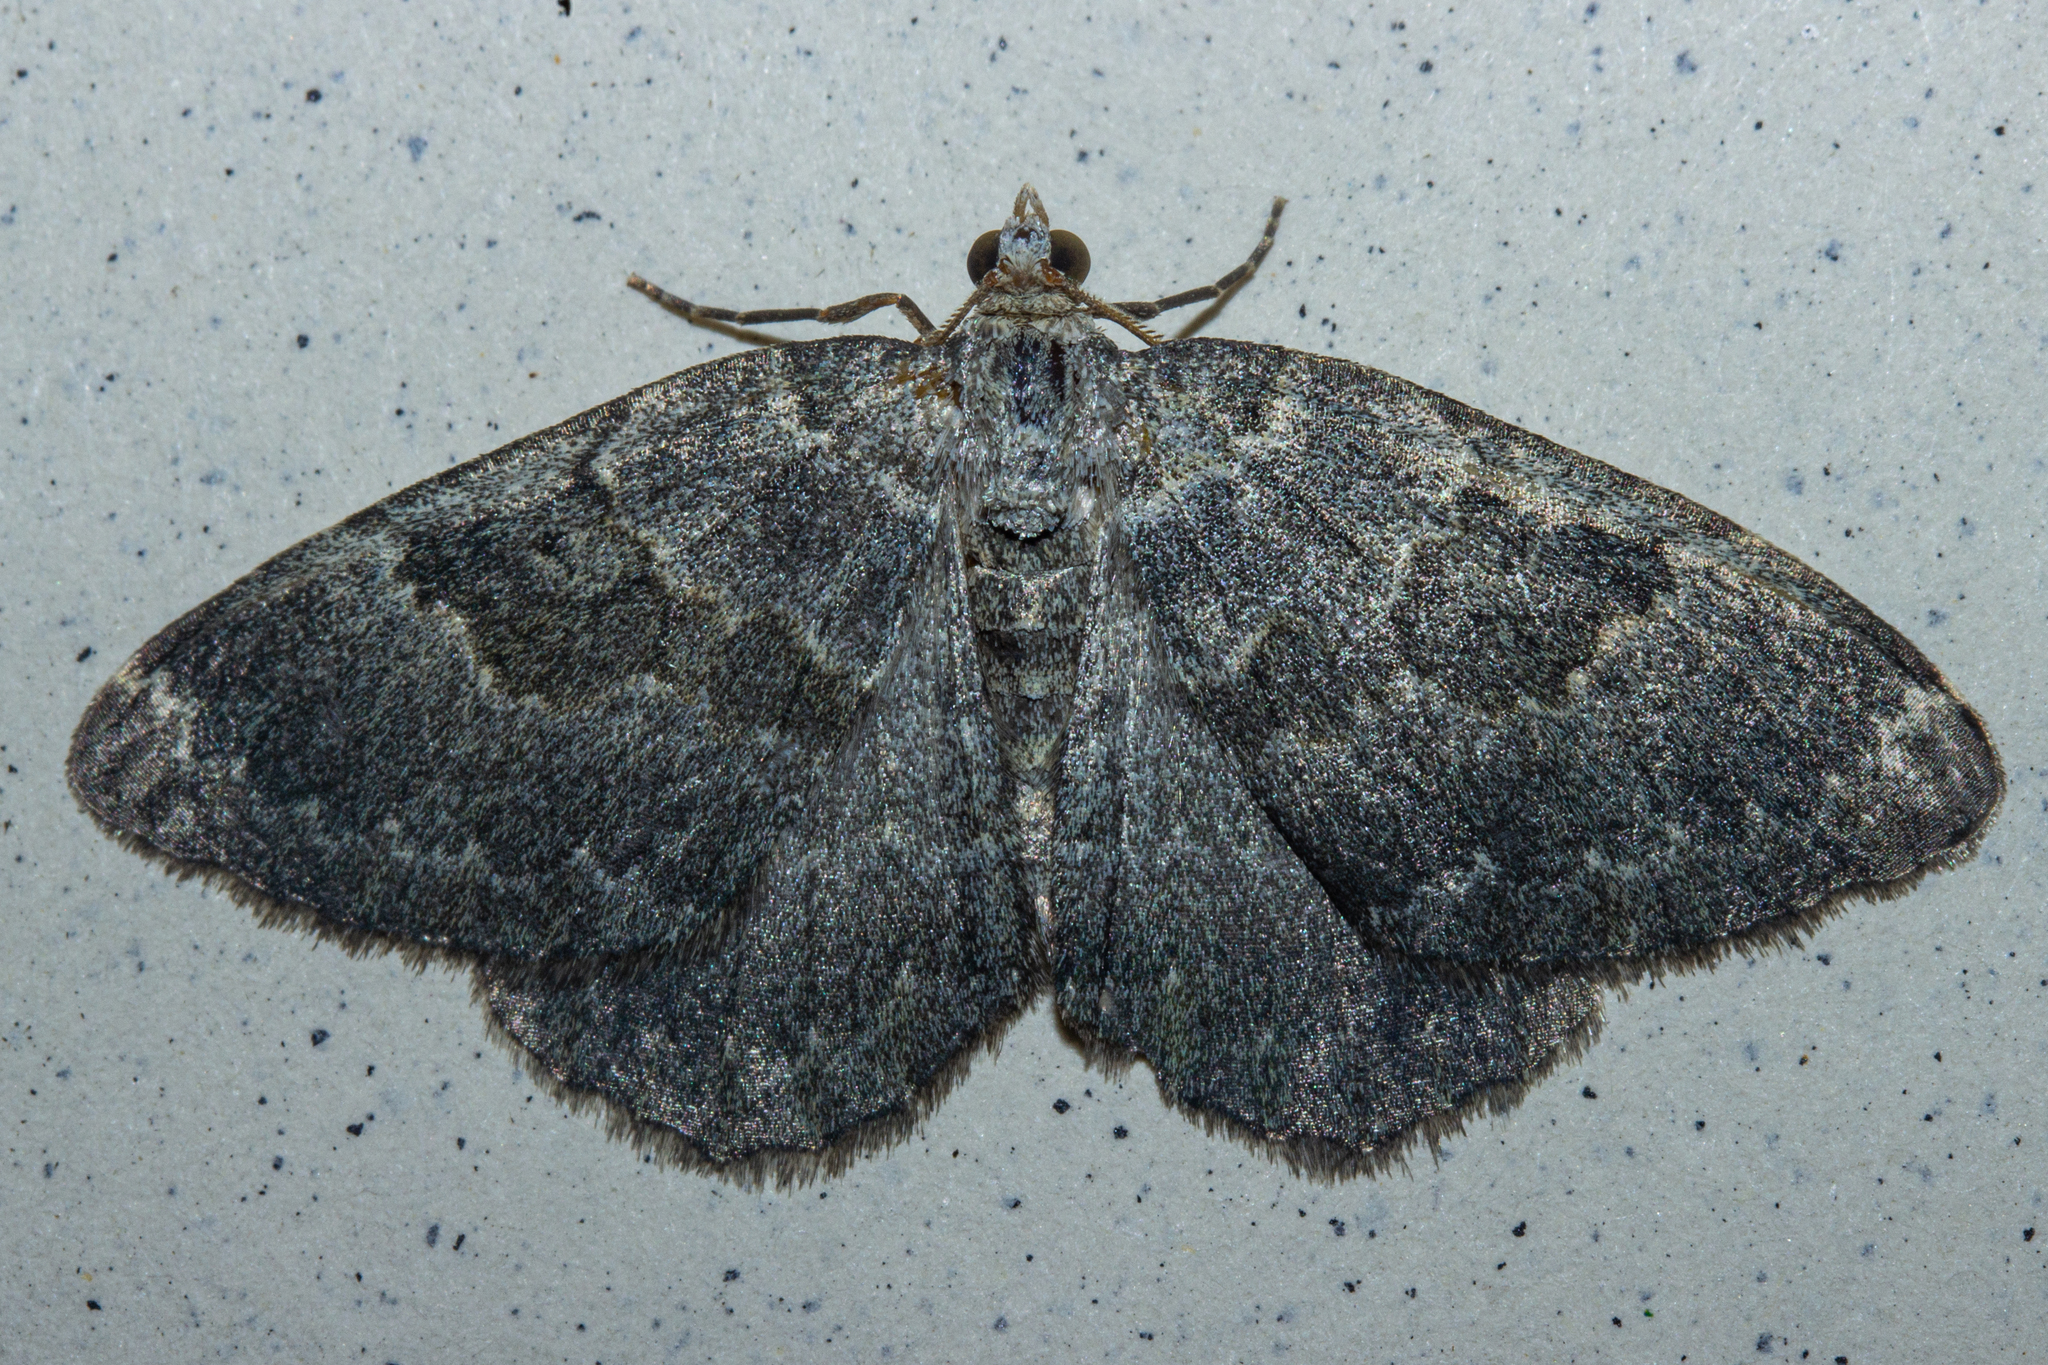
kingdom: Animalia
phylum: Arthropoda
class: Insecta
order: Lepidoptera
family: Geometridae
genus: Gingidiobora
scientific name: Gingidiobora nebulosa
